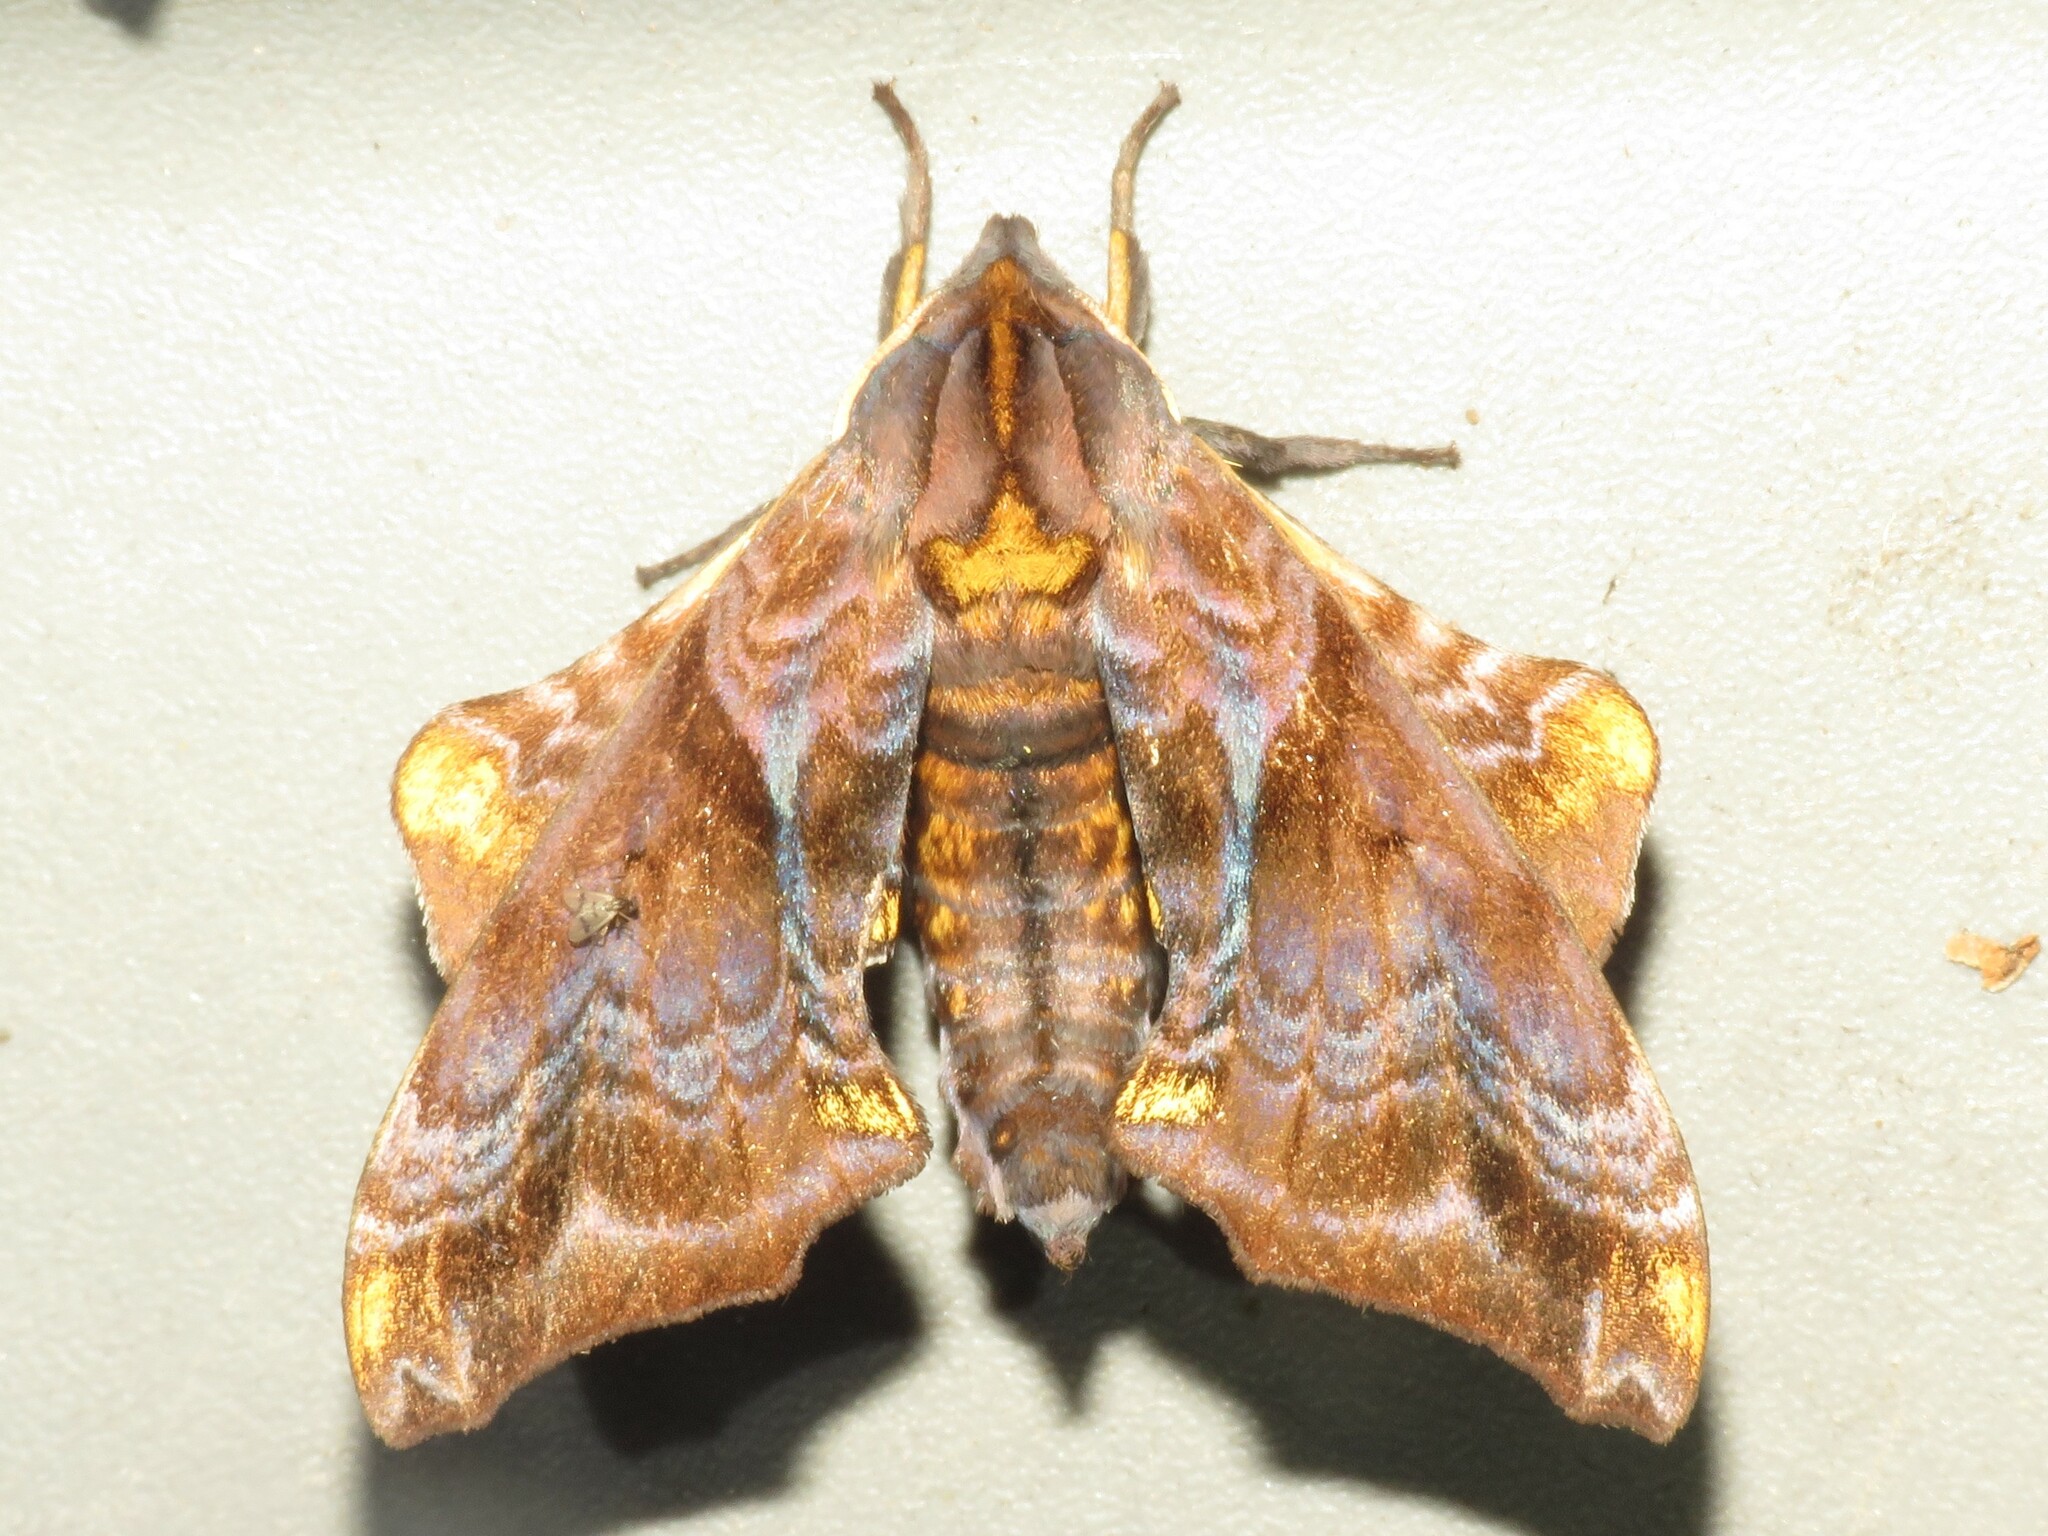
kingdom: Animalia
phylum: Arthropoda
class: Insecta
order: Lepidoptera
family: Sphingidae
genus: Paonias
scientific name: Paonias myops
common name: Small-eyed sphinx
